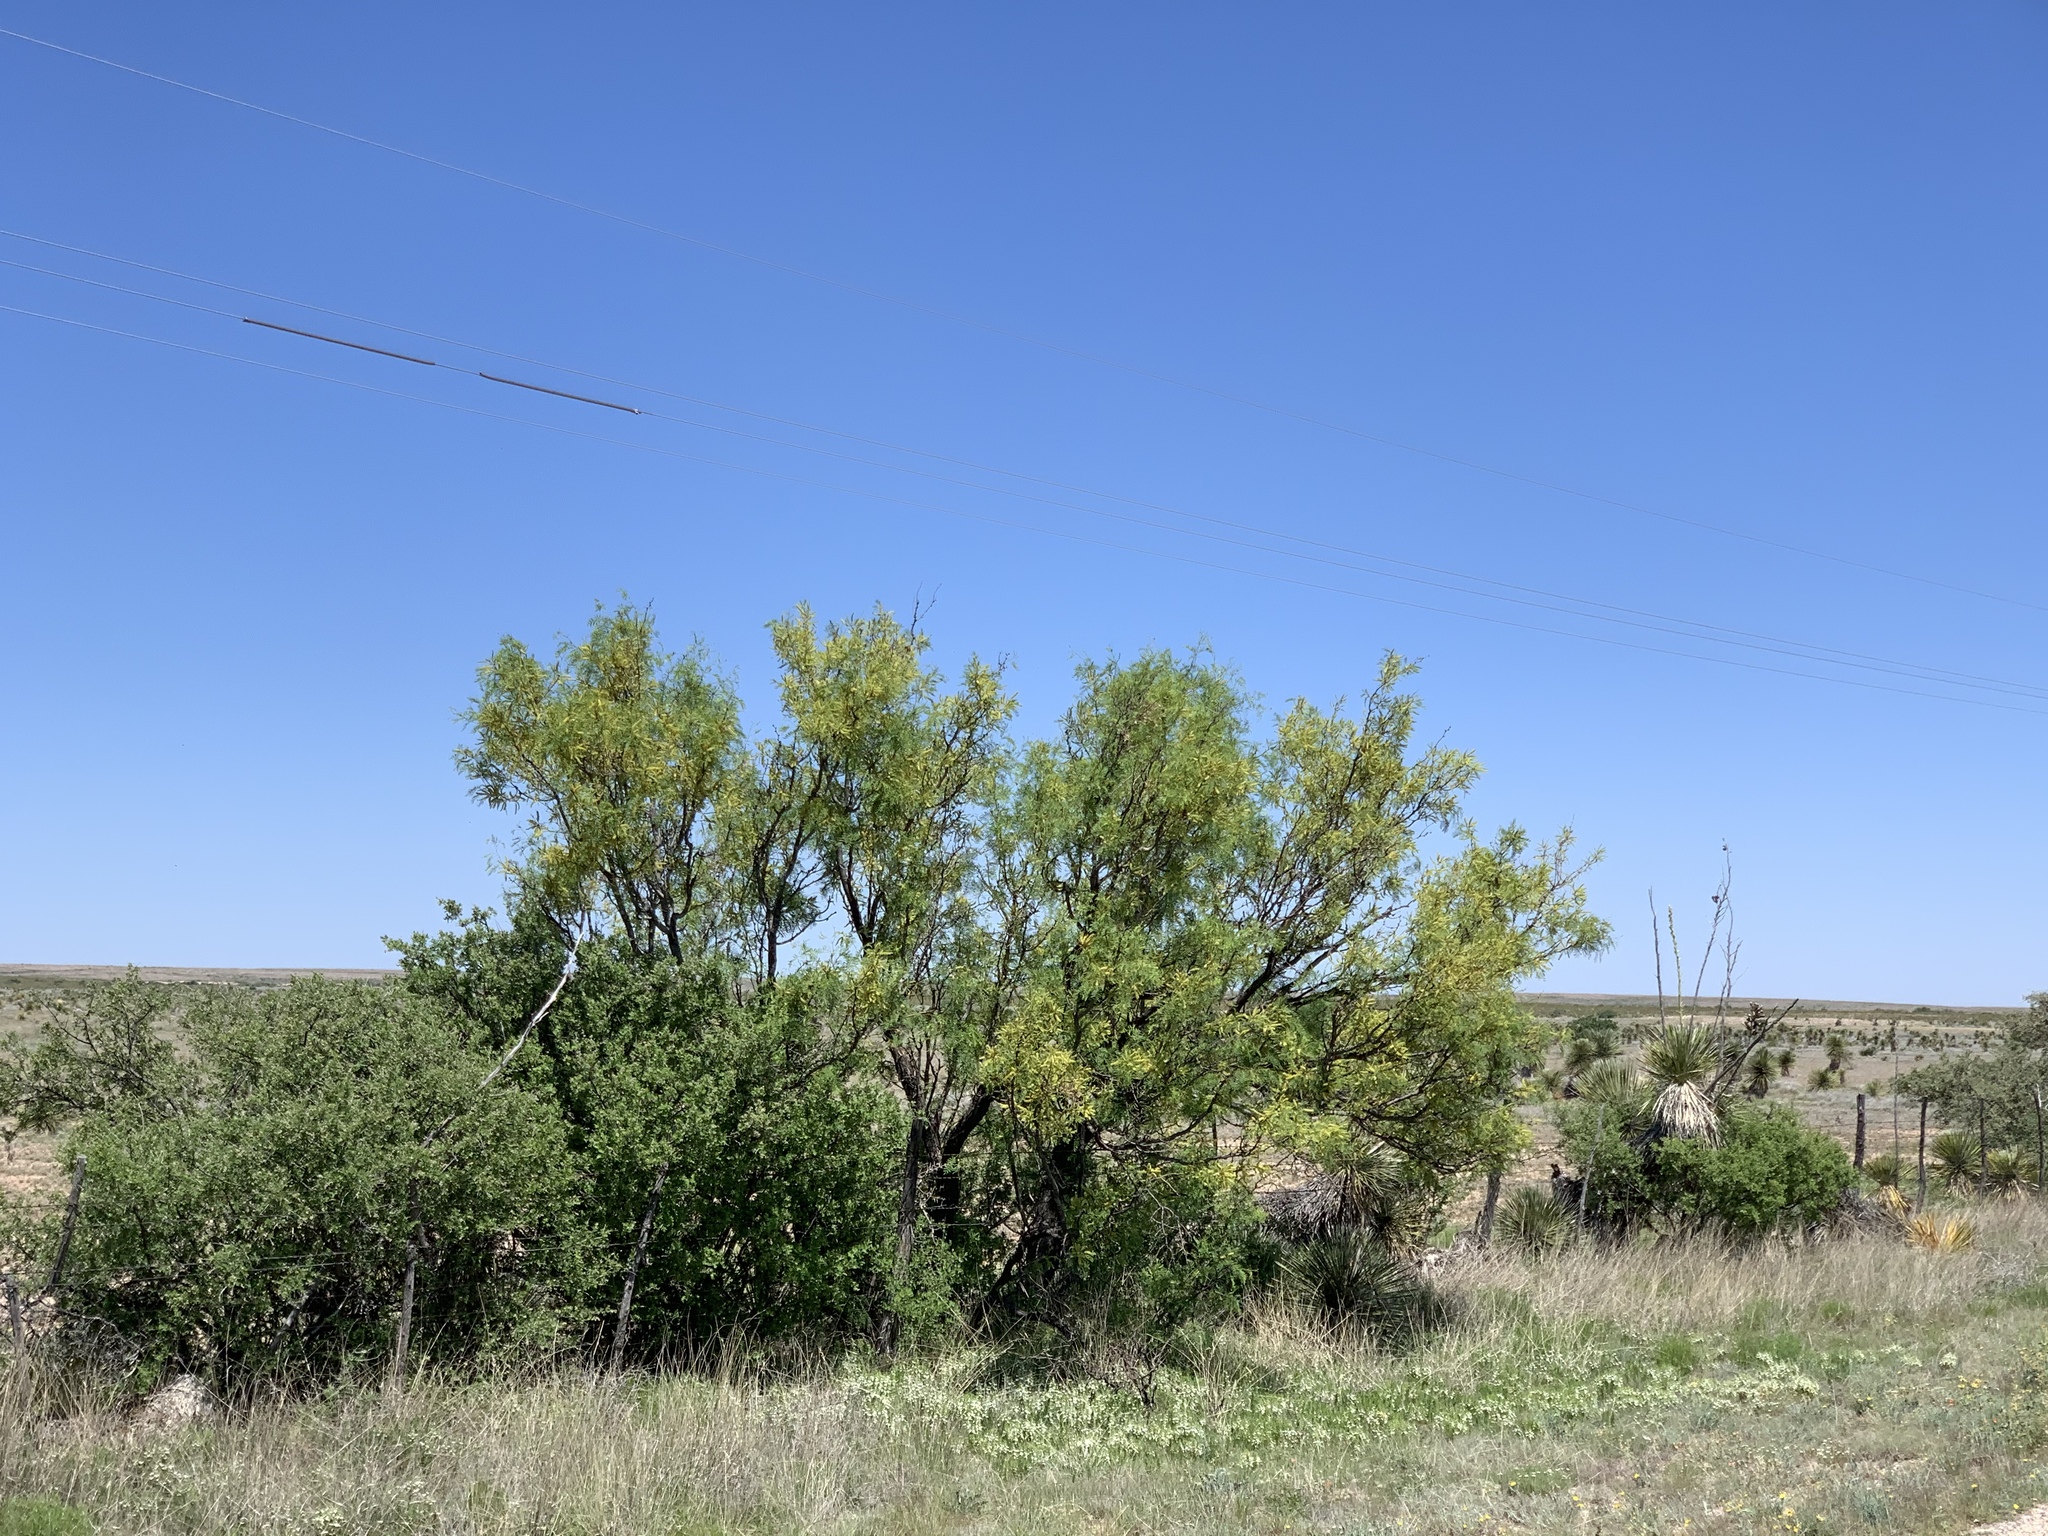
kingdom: Plantae
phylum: Tracheophyta
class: Magnoliopsida
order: Fabales
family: Fabaceae
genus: Prosopis
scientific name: Prosopis glandulosa
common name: Honey mesquite
